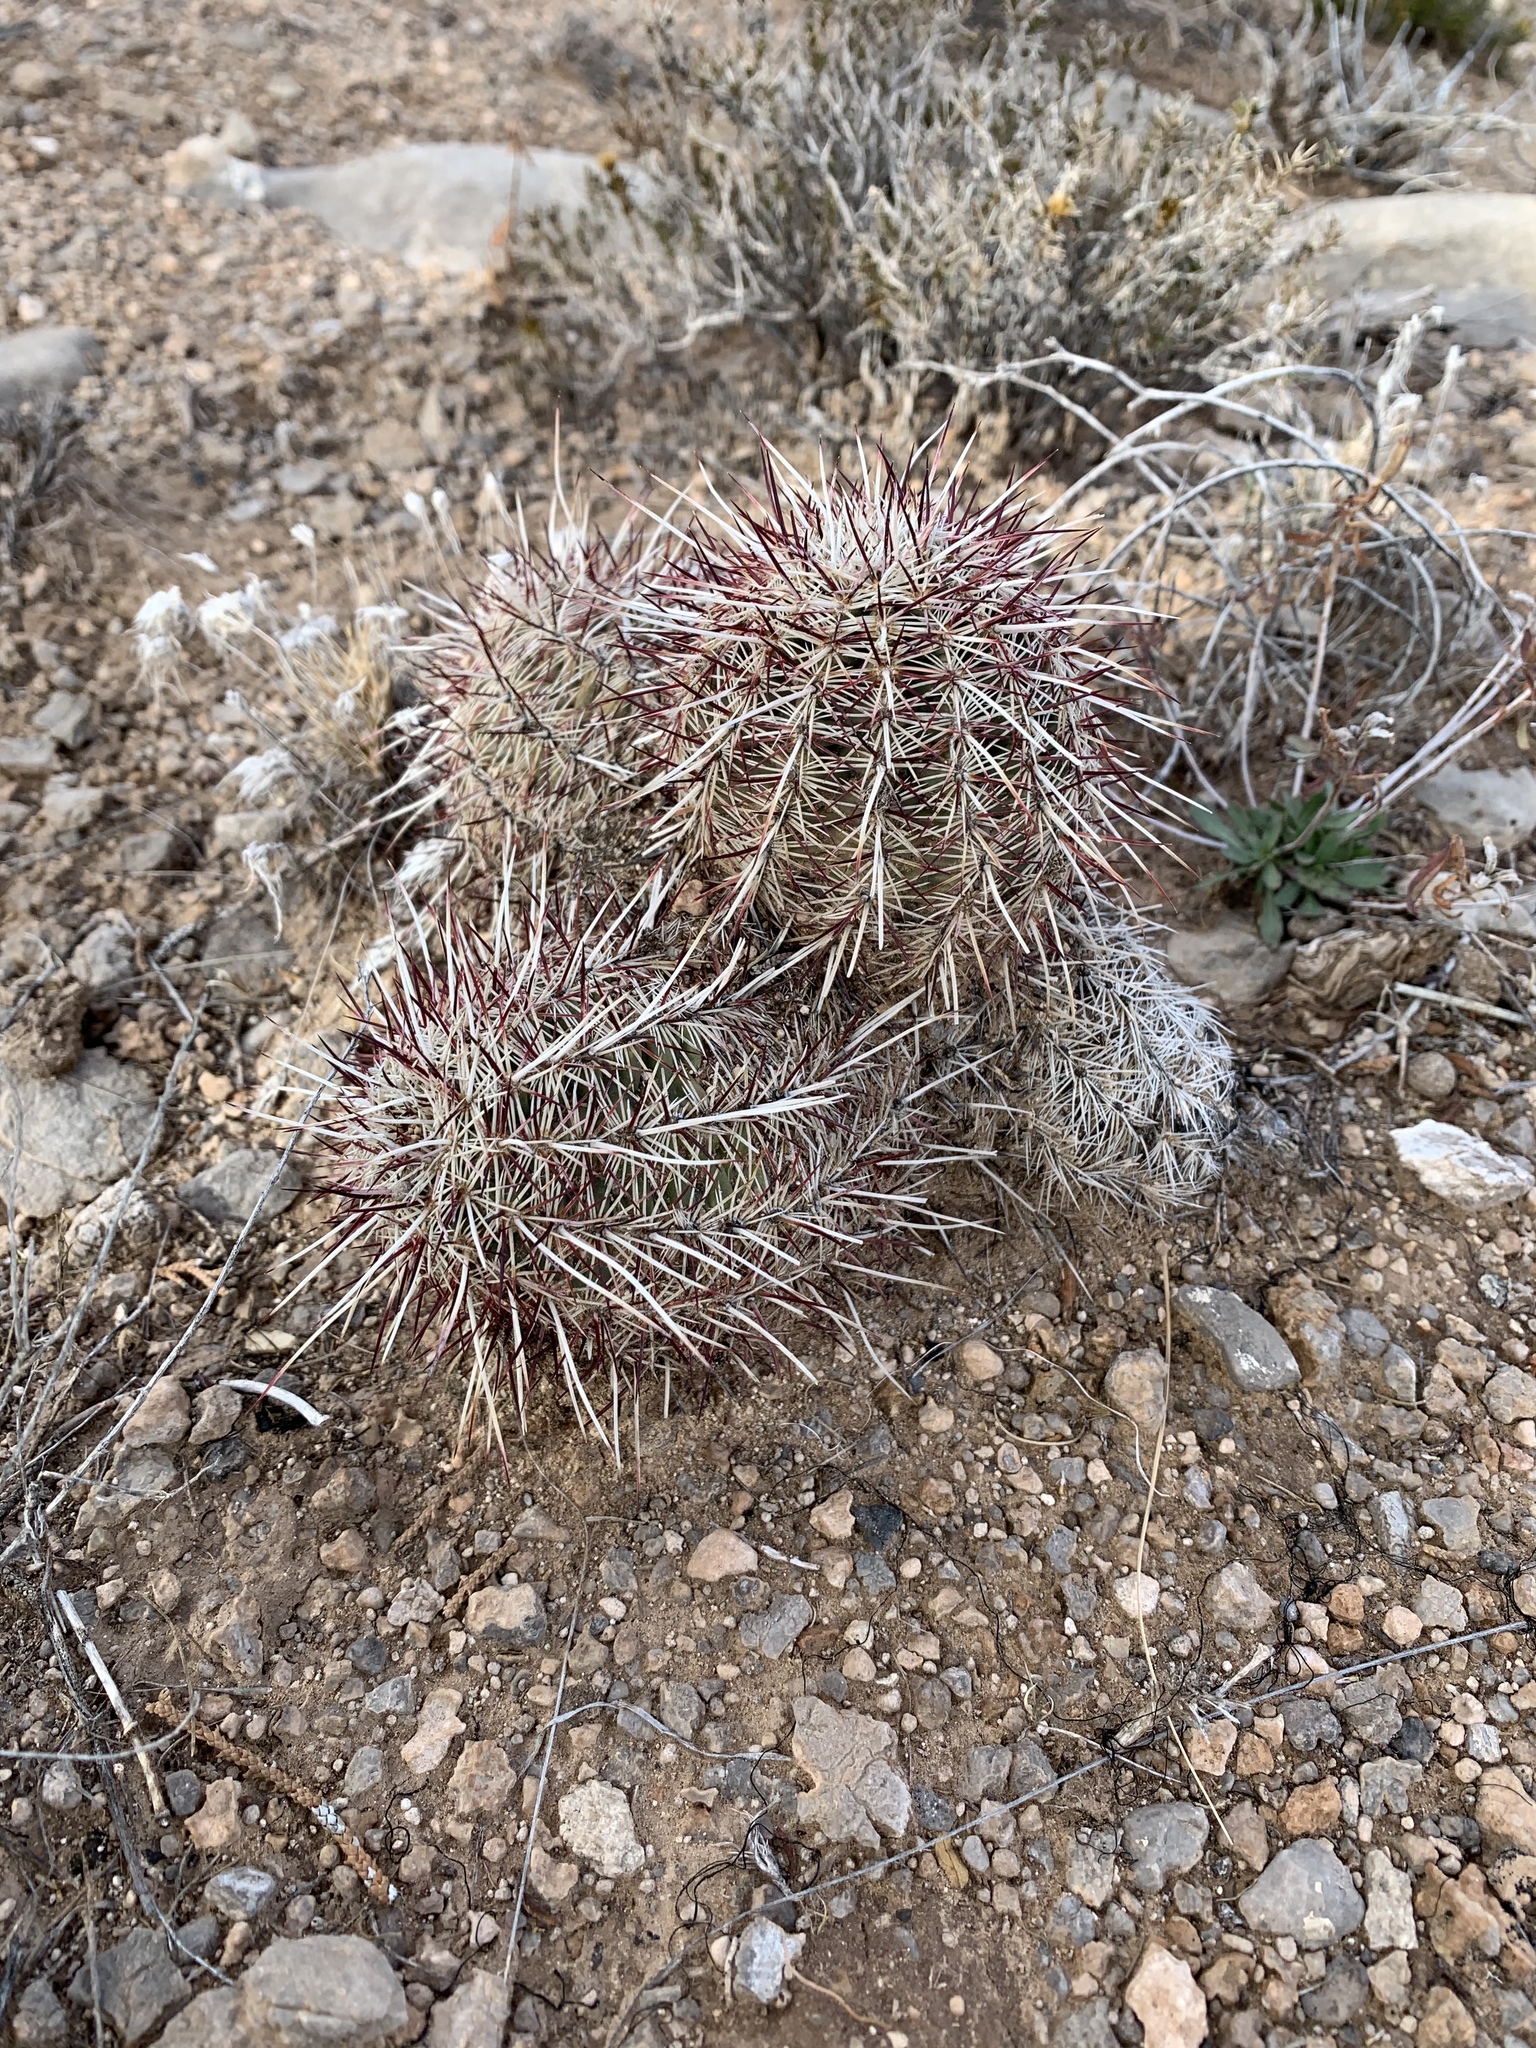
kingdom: Plantae
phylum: Tracheophyta
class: Magnoliopsida
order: Caryophyllales
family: Cactaceae
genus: Echinocereus
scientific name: Echinocereus viridiflorus
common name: Nylon hedgehog cactus
